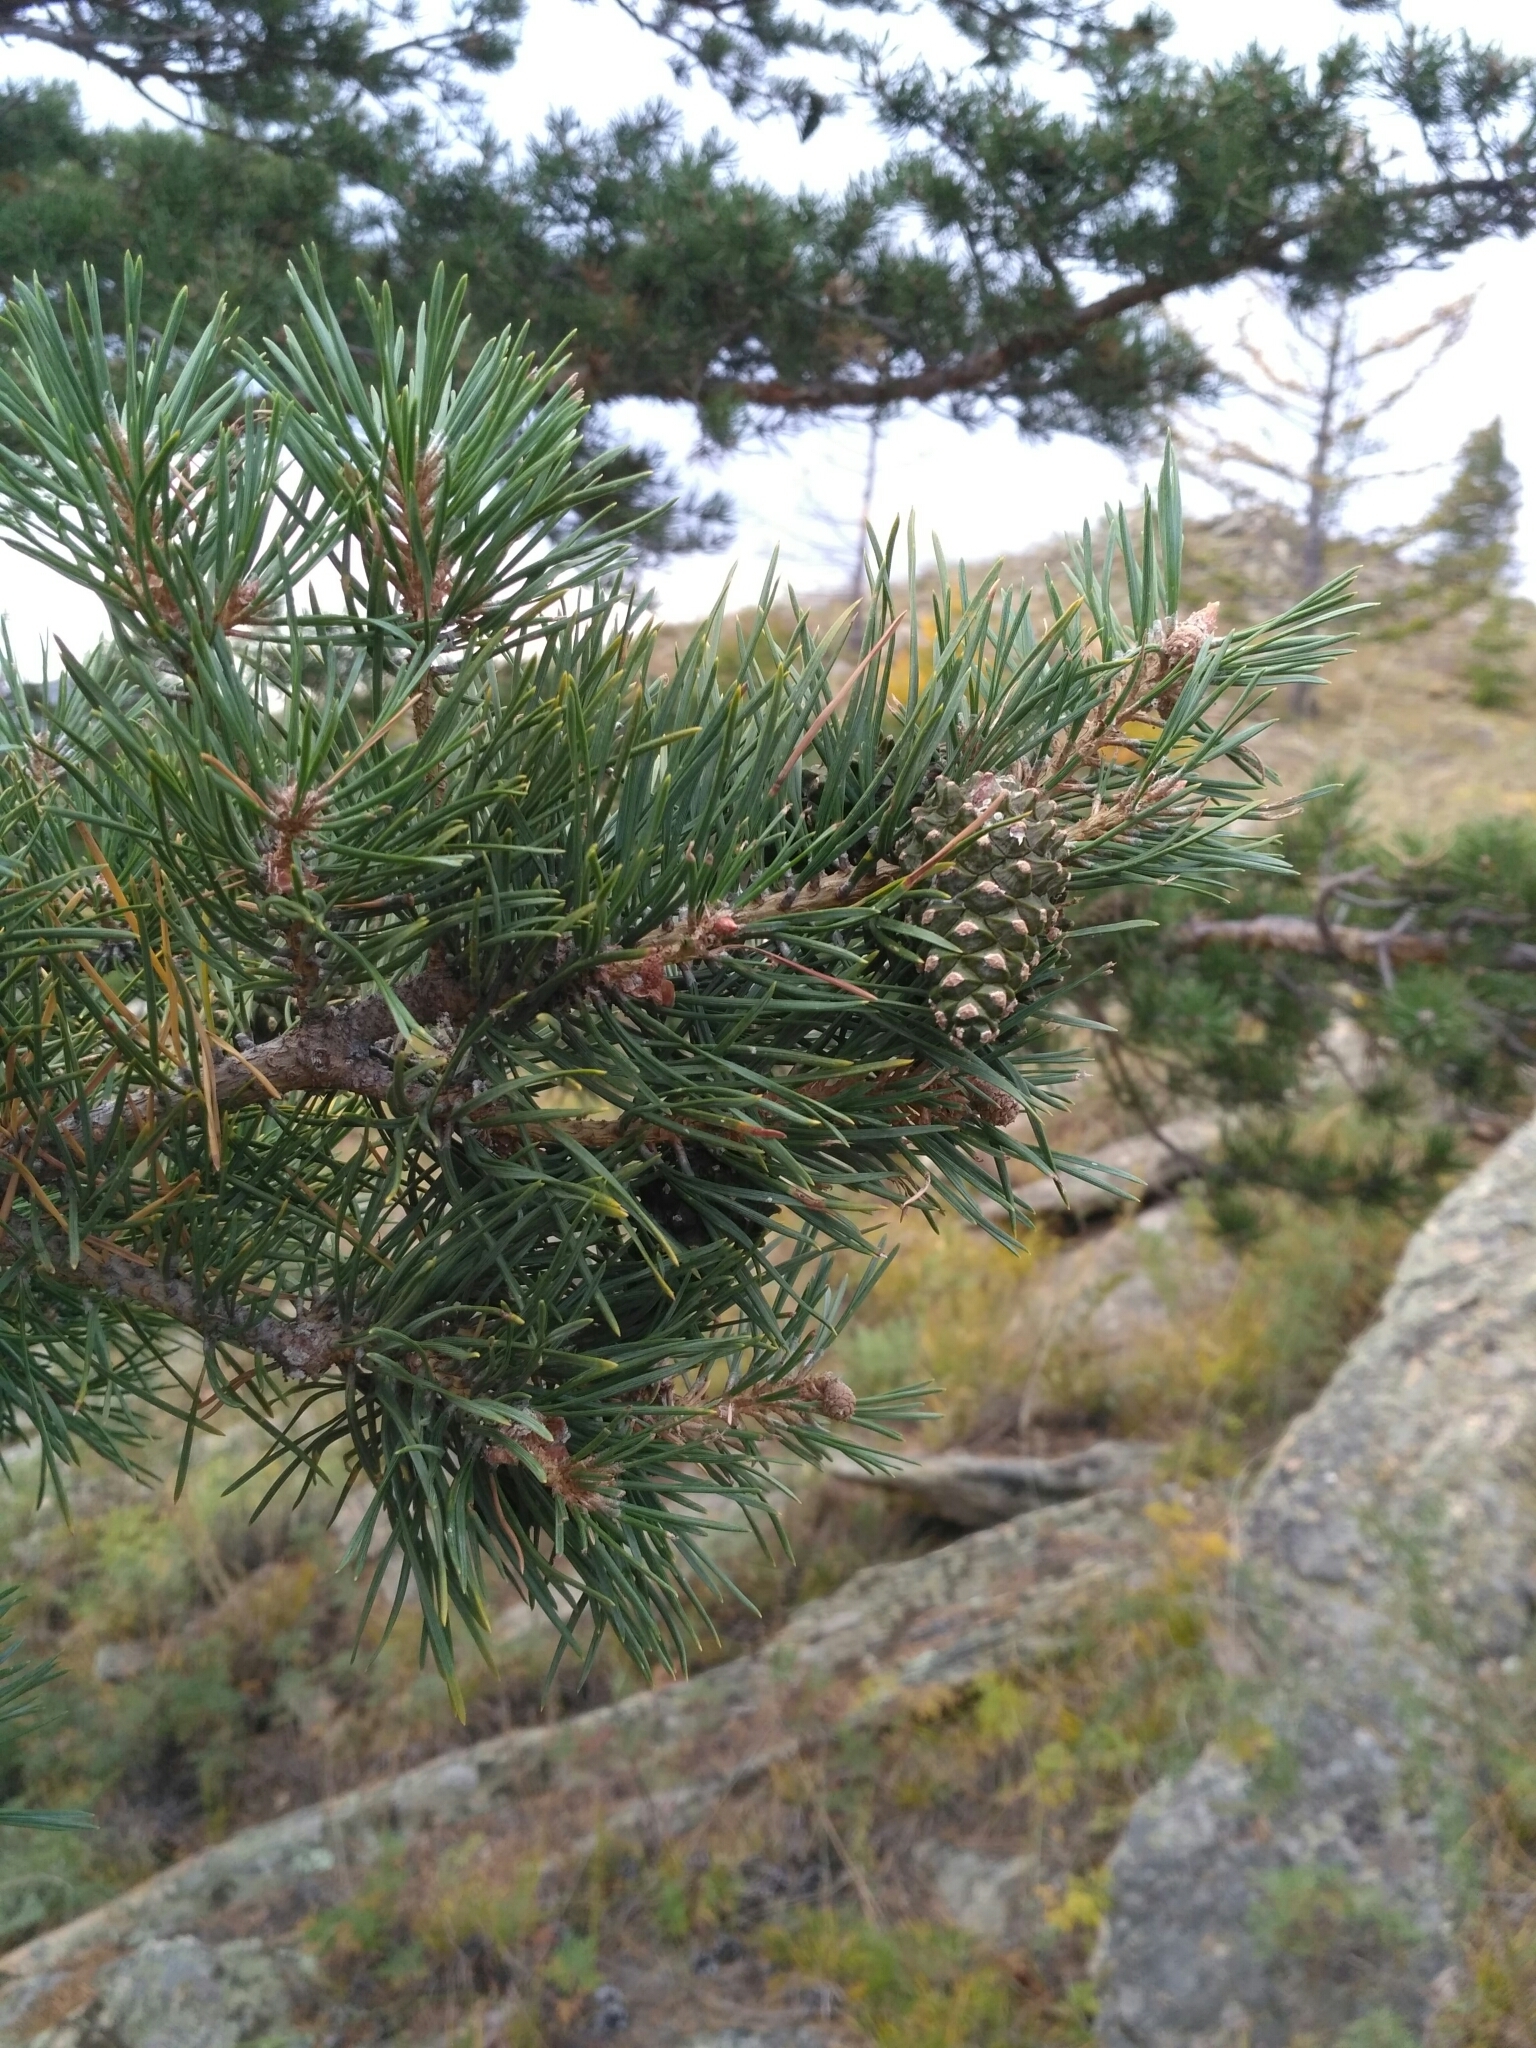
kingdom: Plantae
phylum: Tracheophyta
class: Pinopsida
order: Pinales
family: Pinaceae
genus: Pinus
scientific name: Pinus sylvestris
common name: Scots pine
